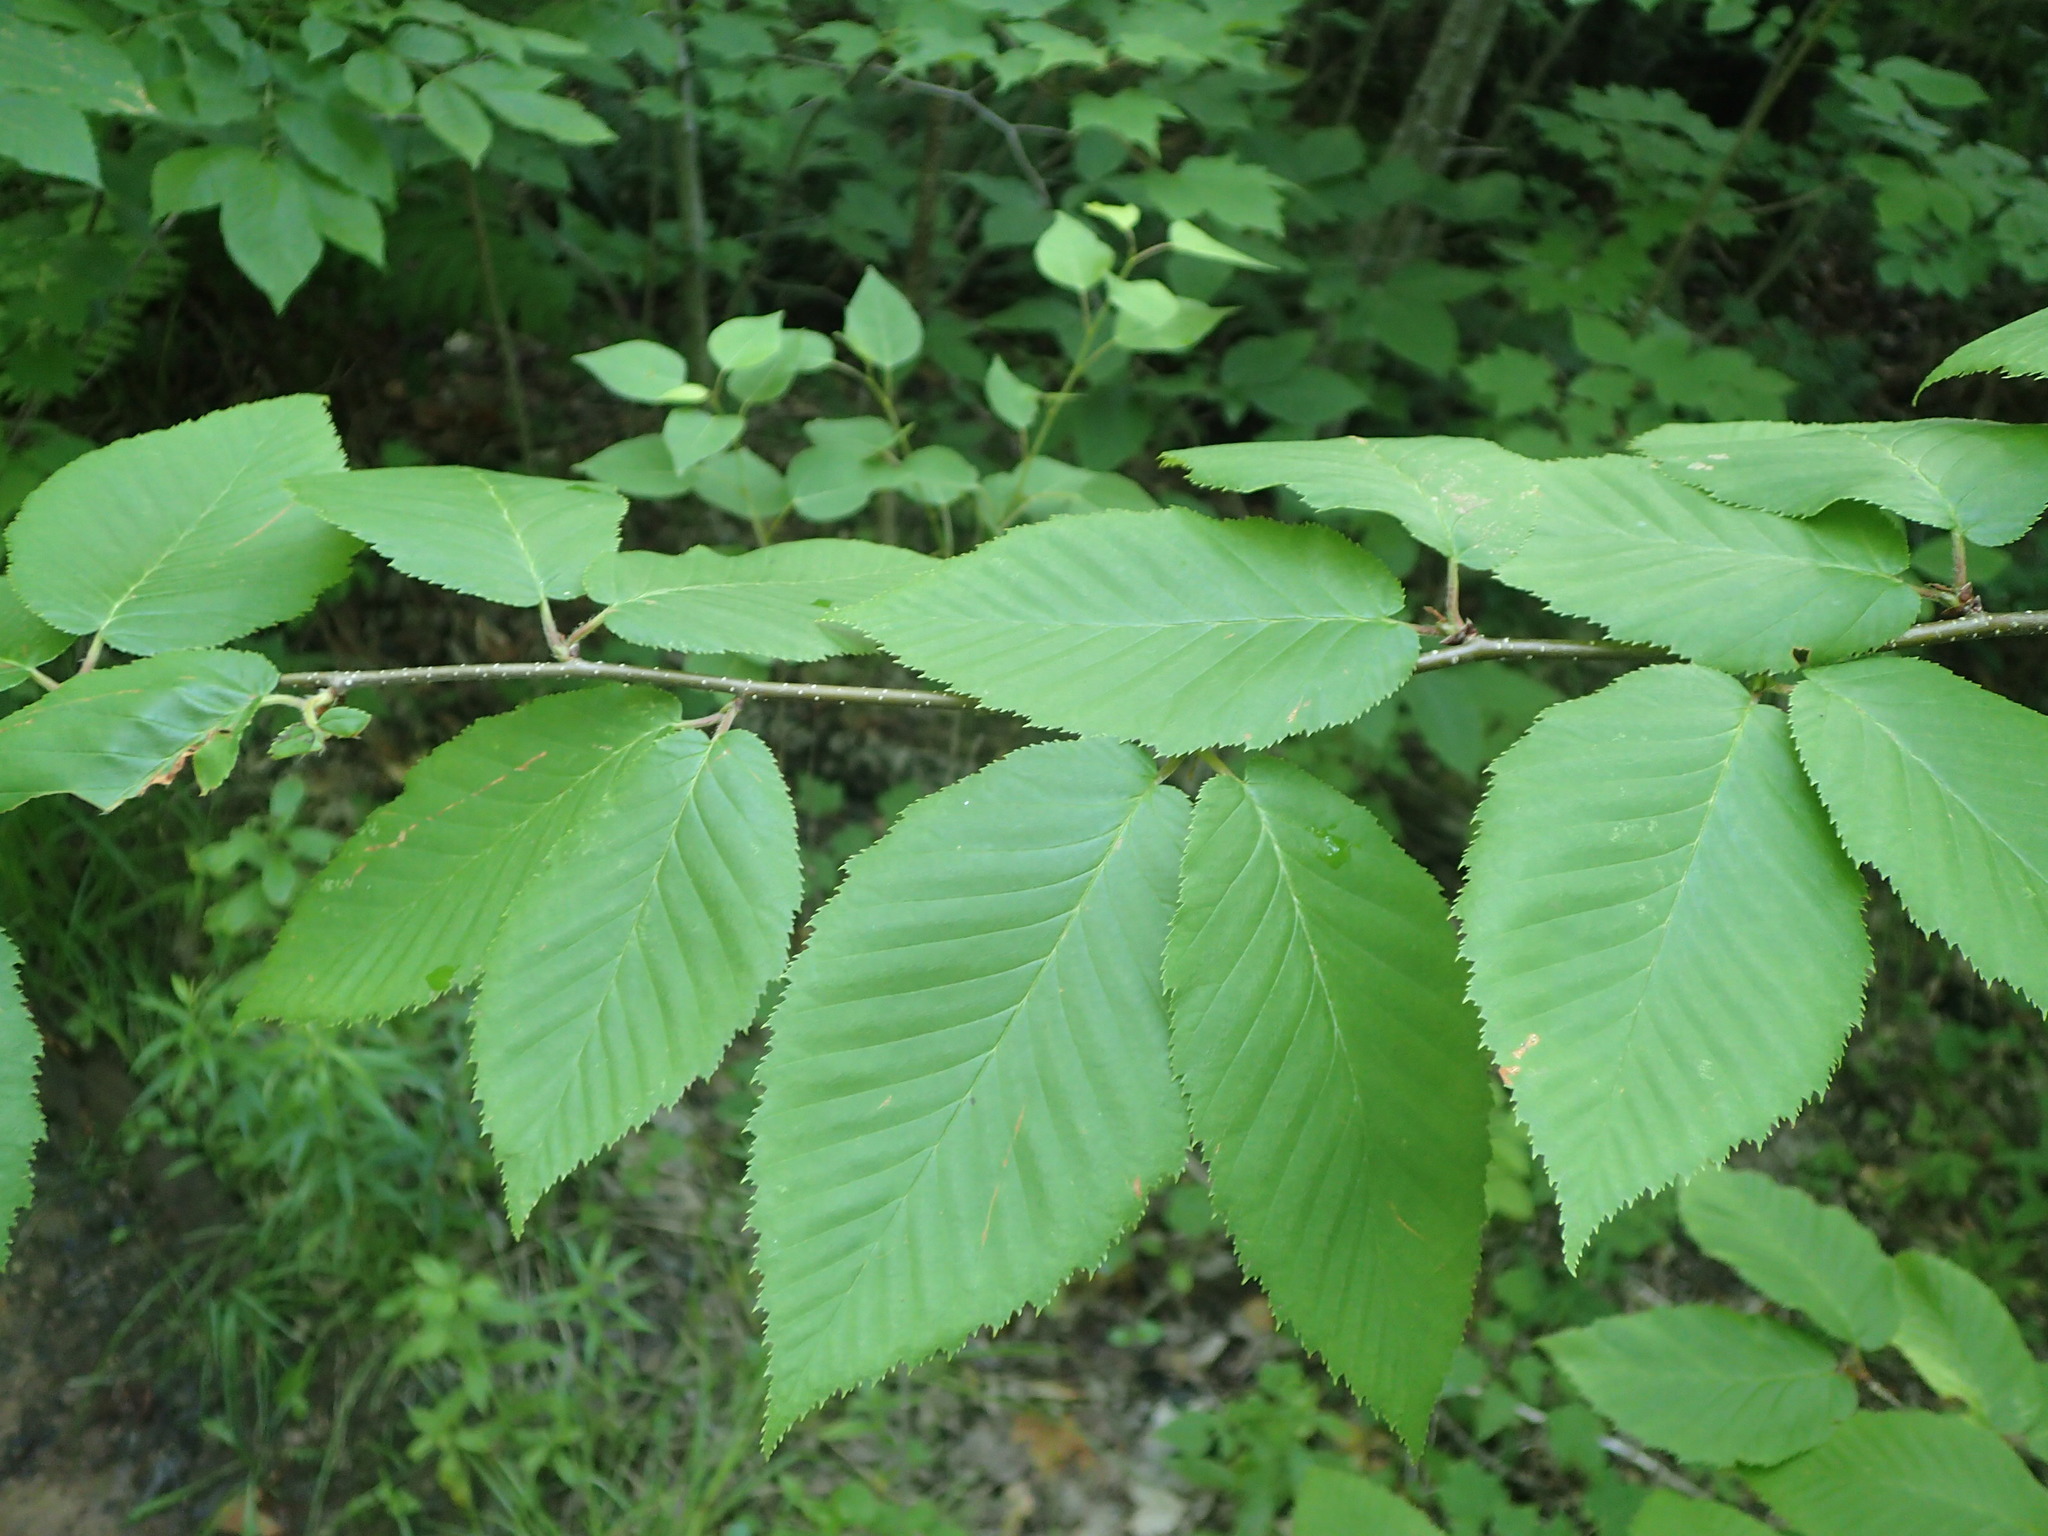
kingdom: Plantae
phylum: Tracheophyta
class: Magnoliopsida
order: Fagales
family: Betulaceae
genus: Betula
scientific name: Betula alleghaniensis
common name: Yellow birch
